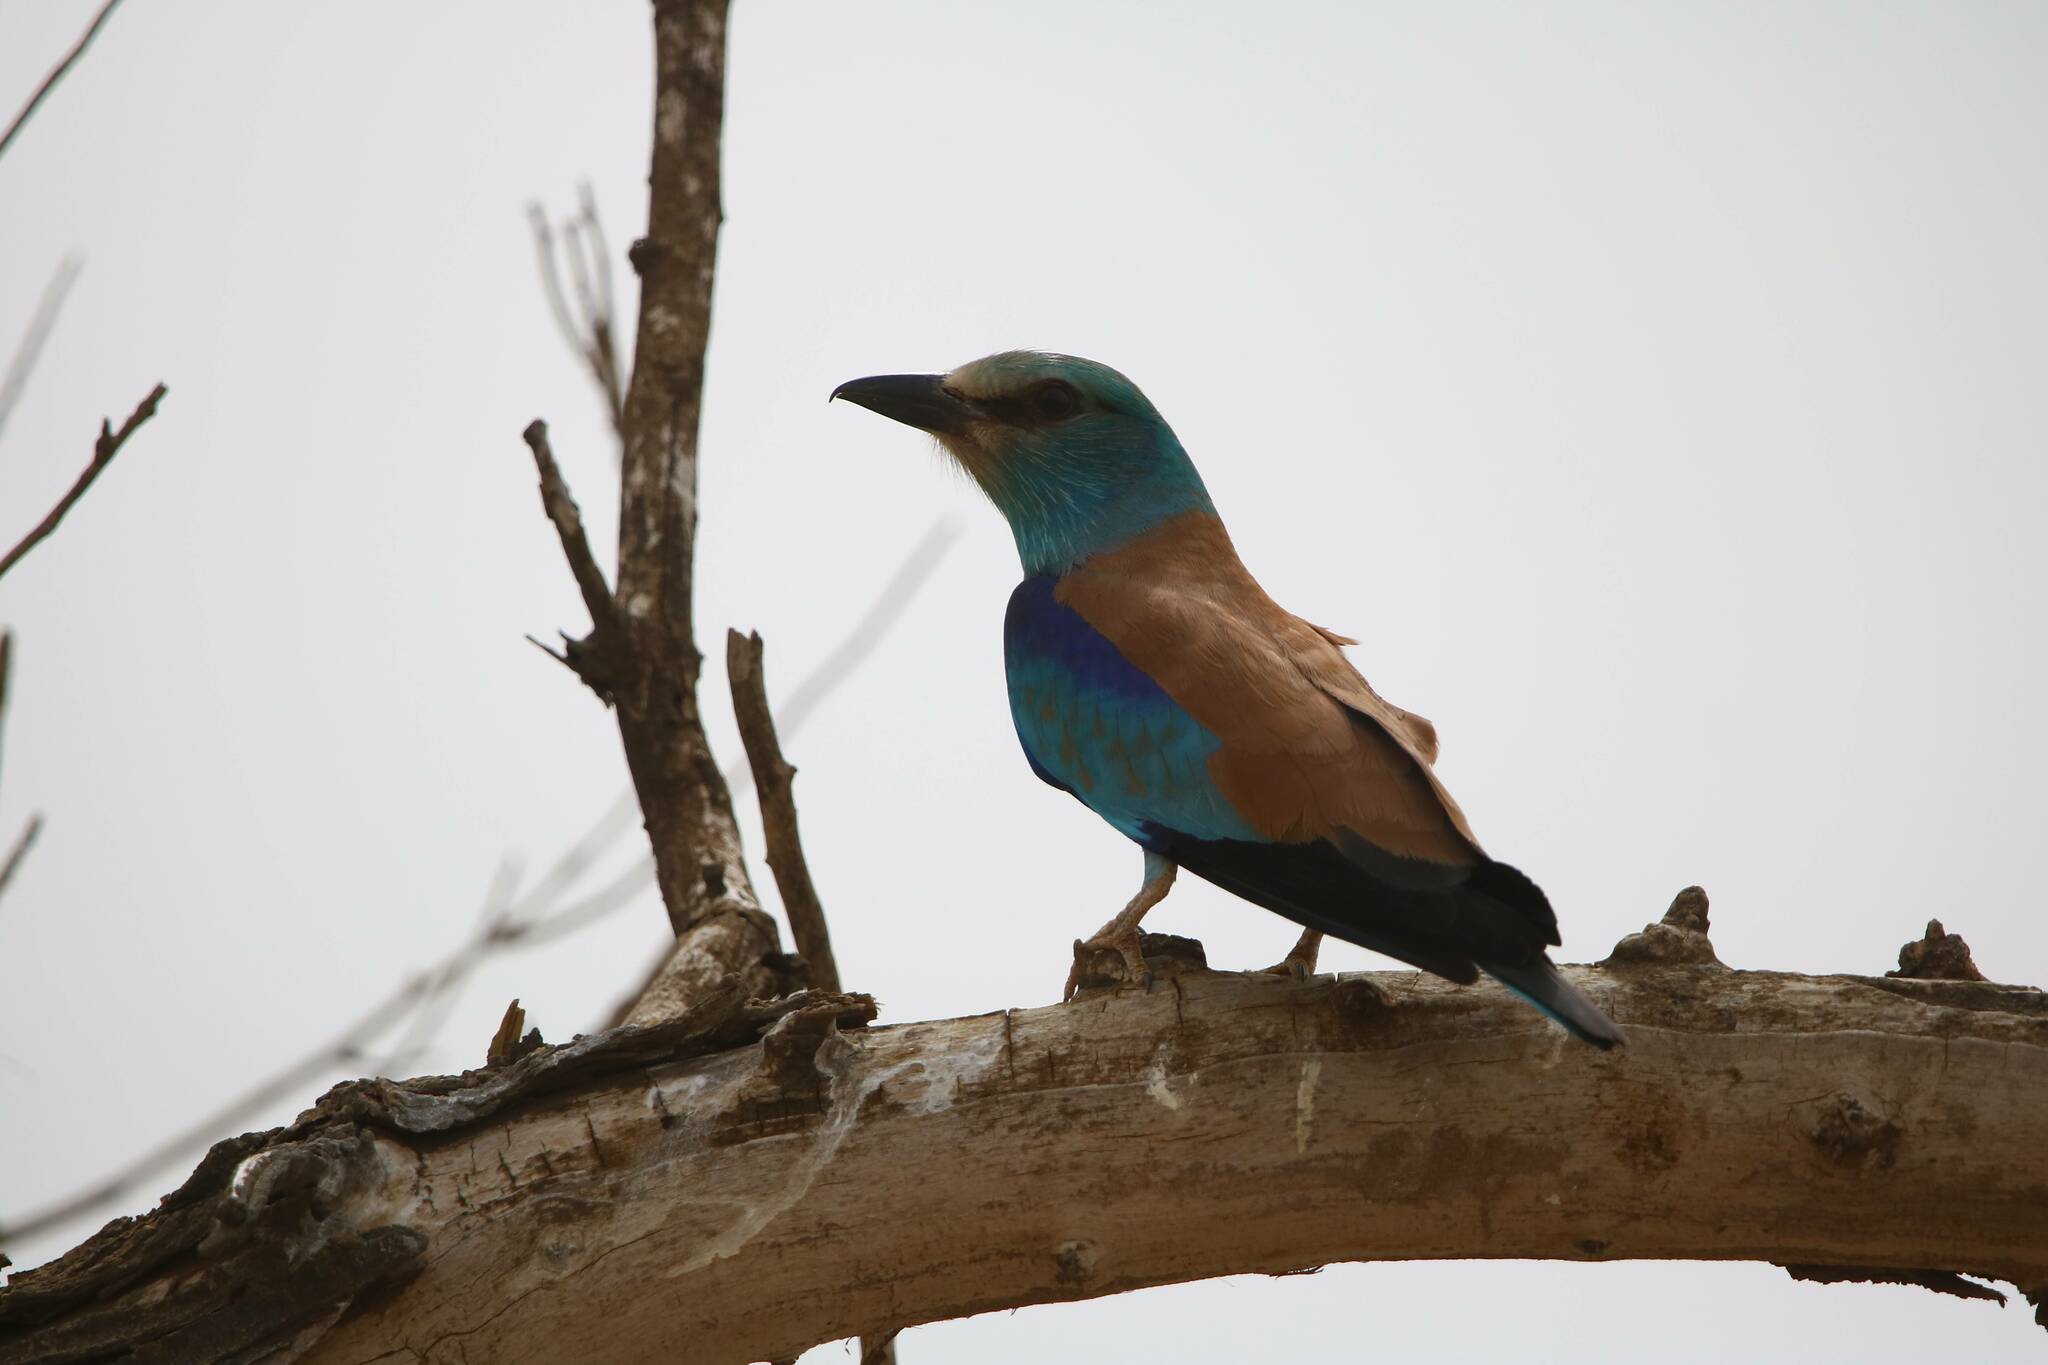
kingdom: Animalia
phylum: Chordata
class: Aves
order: Coraciiformes
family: Coraciidae
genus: Coracias
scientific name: Coracias garrulus
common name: European roller
